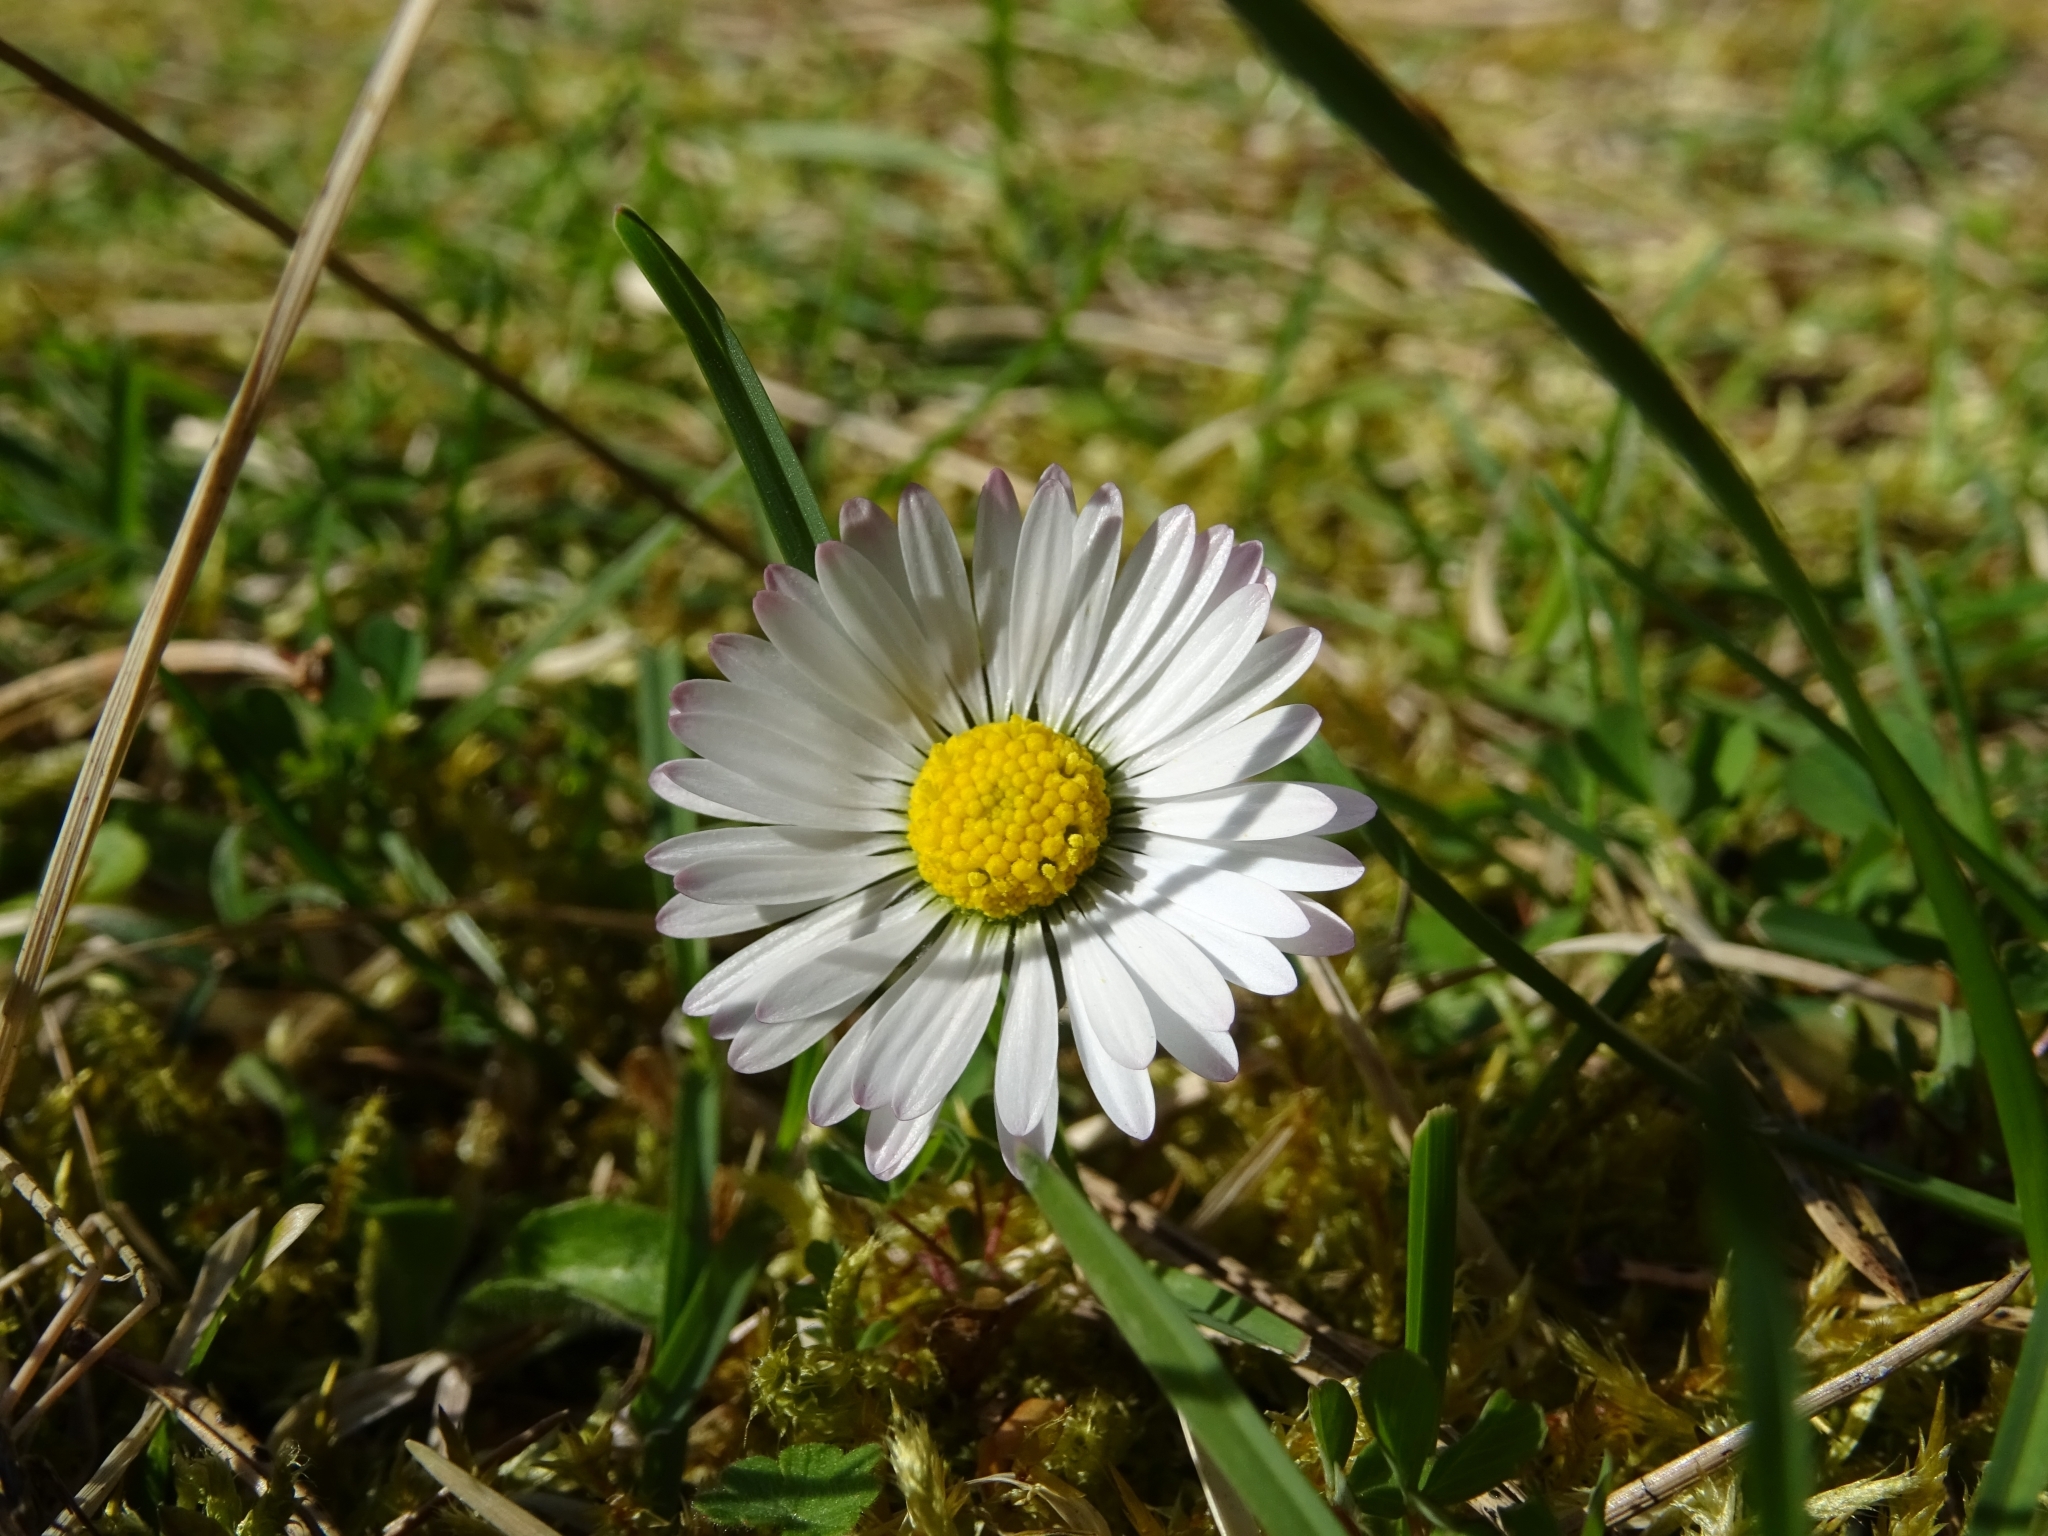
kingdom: Plantae
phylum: Tracheophyta
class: Magnoliopsida
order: Asterales
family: Asteraceae
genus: Bellis
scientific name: Bellis perennis
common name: Lawndaisy
